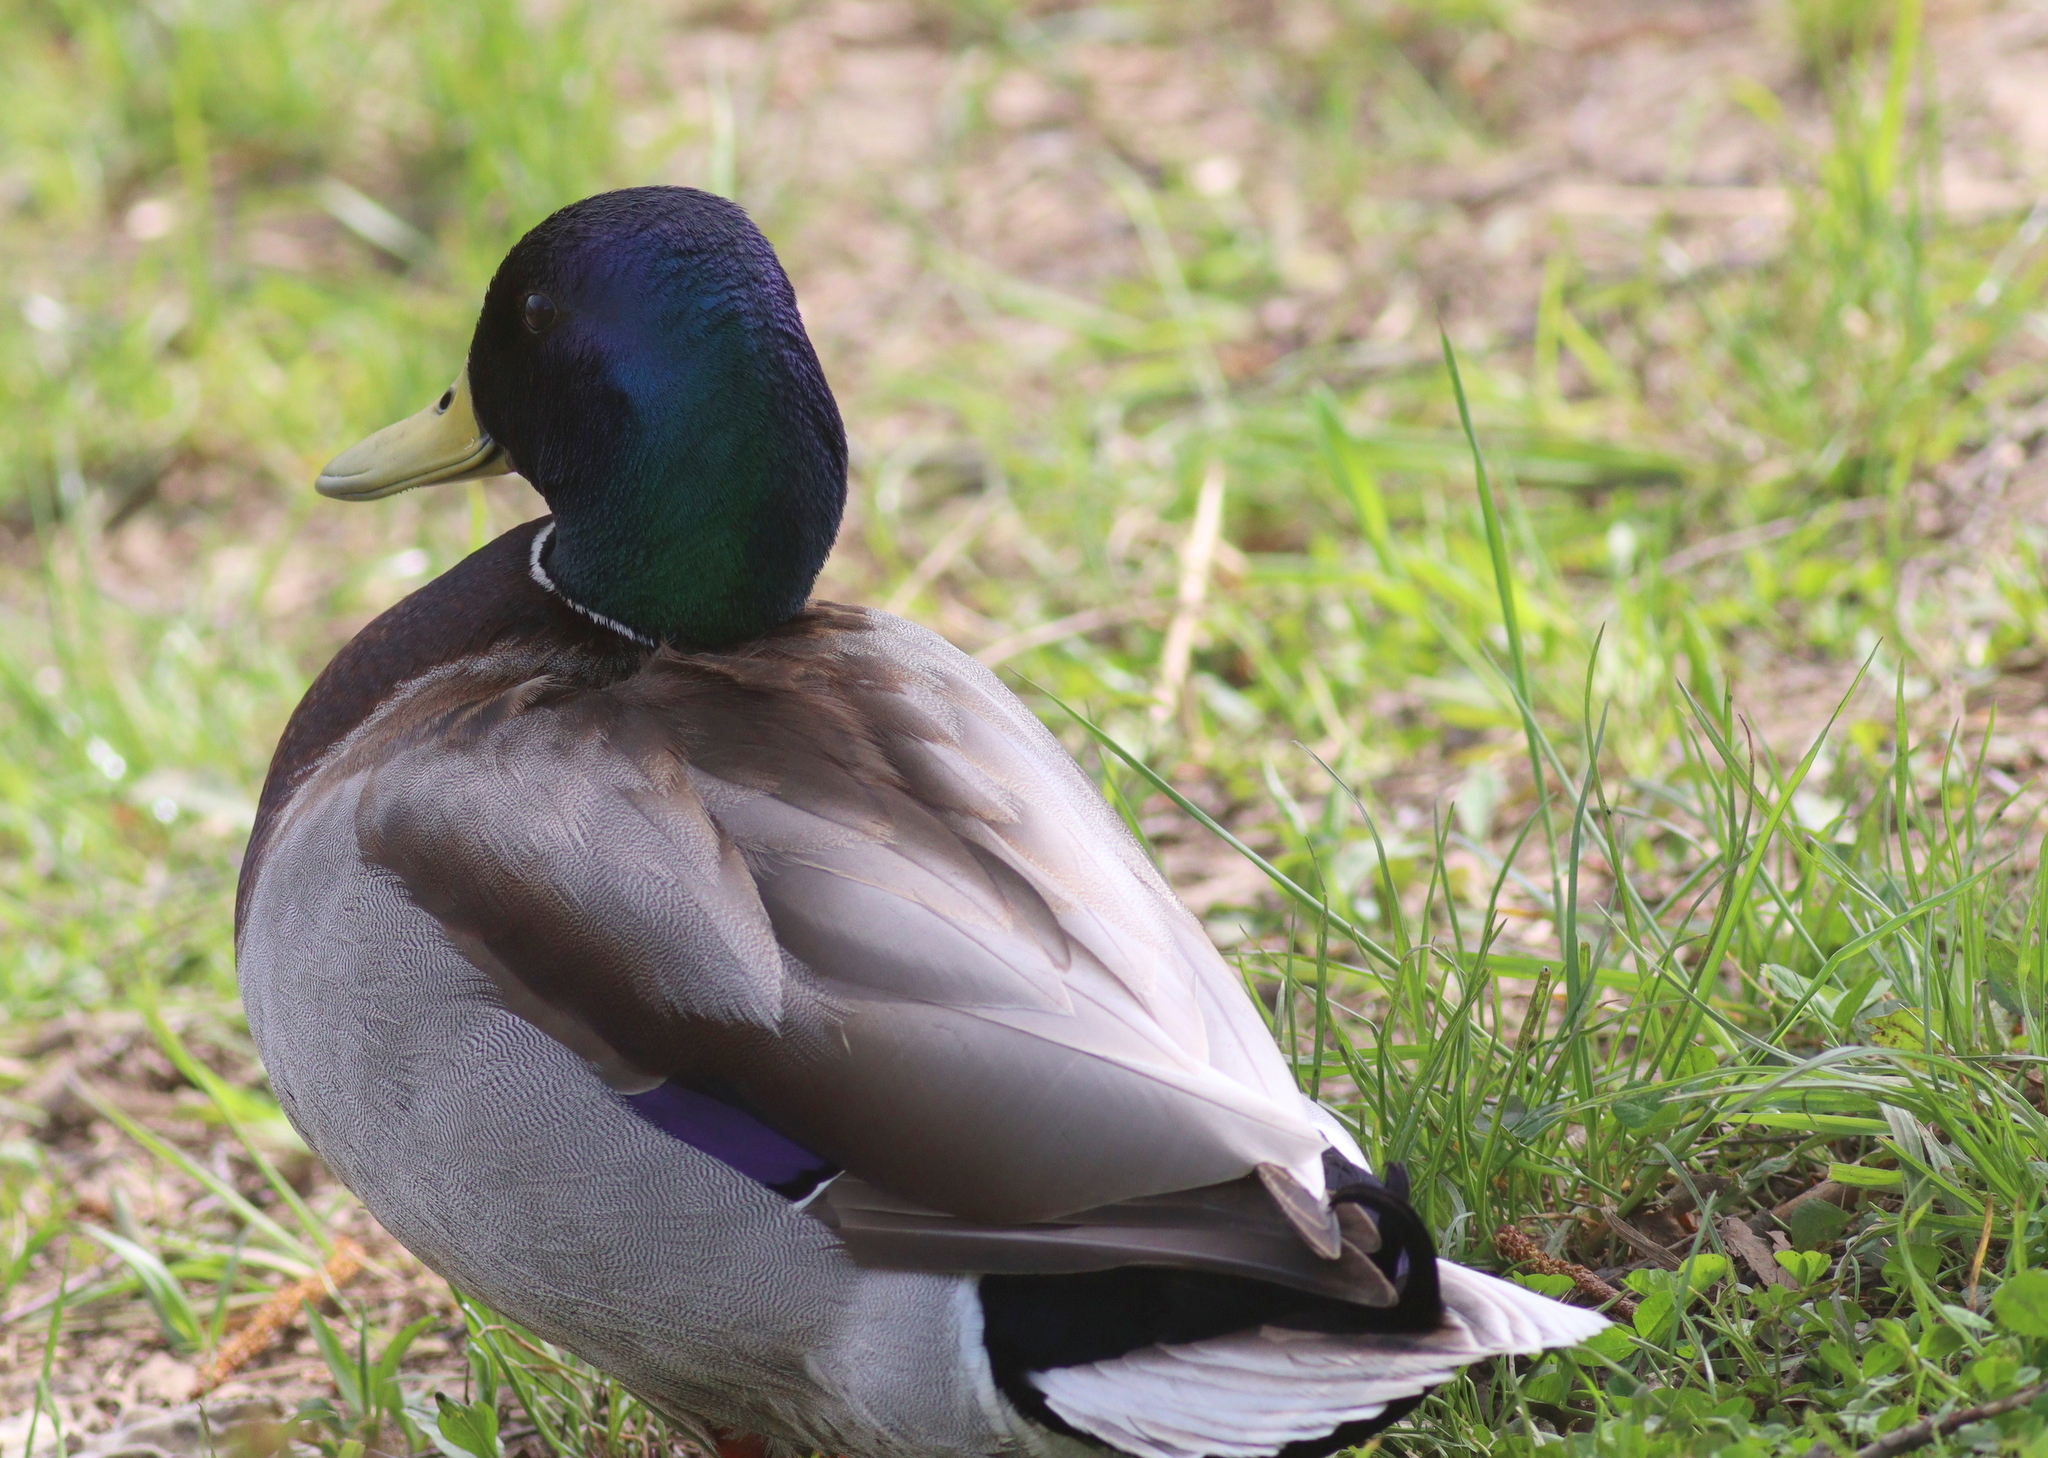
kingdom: Animalia
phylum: Chordata
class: Aves
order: Anseriformes
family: Anatidae
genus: Anas
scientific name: Anas platyrhynchos
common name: Mallard
